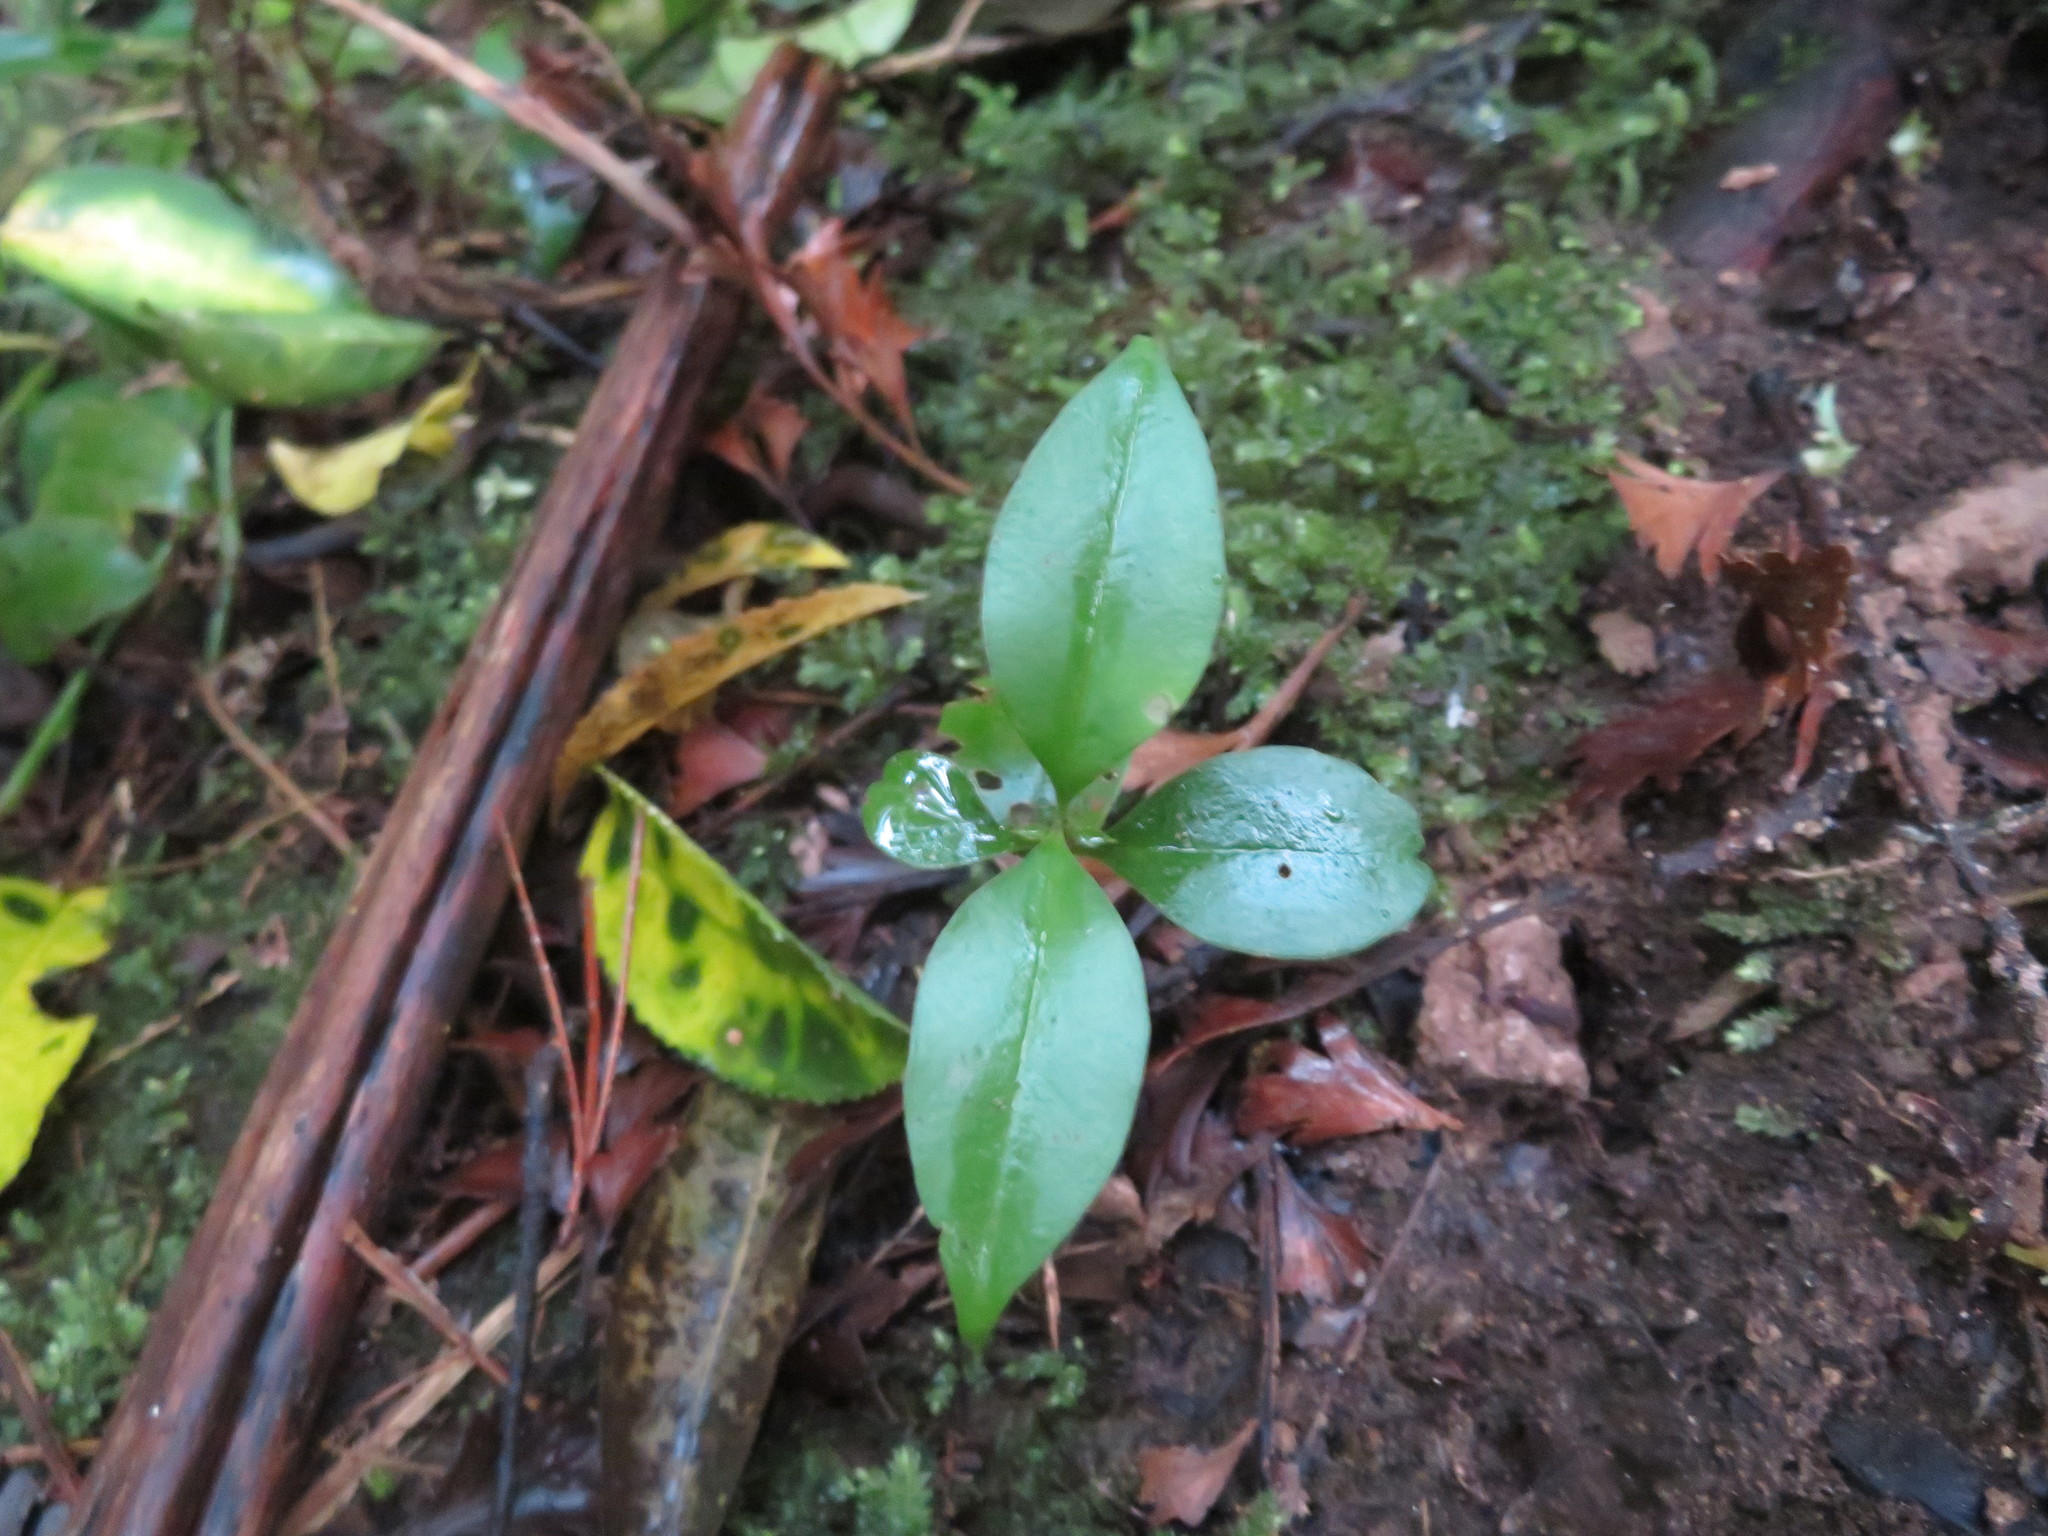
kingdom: Plantae
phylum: Tracheophyta
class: Magnoliopsida
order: Lamiales
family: Oleaceae
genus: Ligustrum
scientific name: Ligustrum lucidum
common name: Glossy privet
